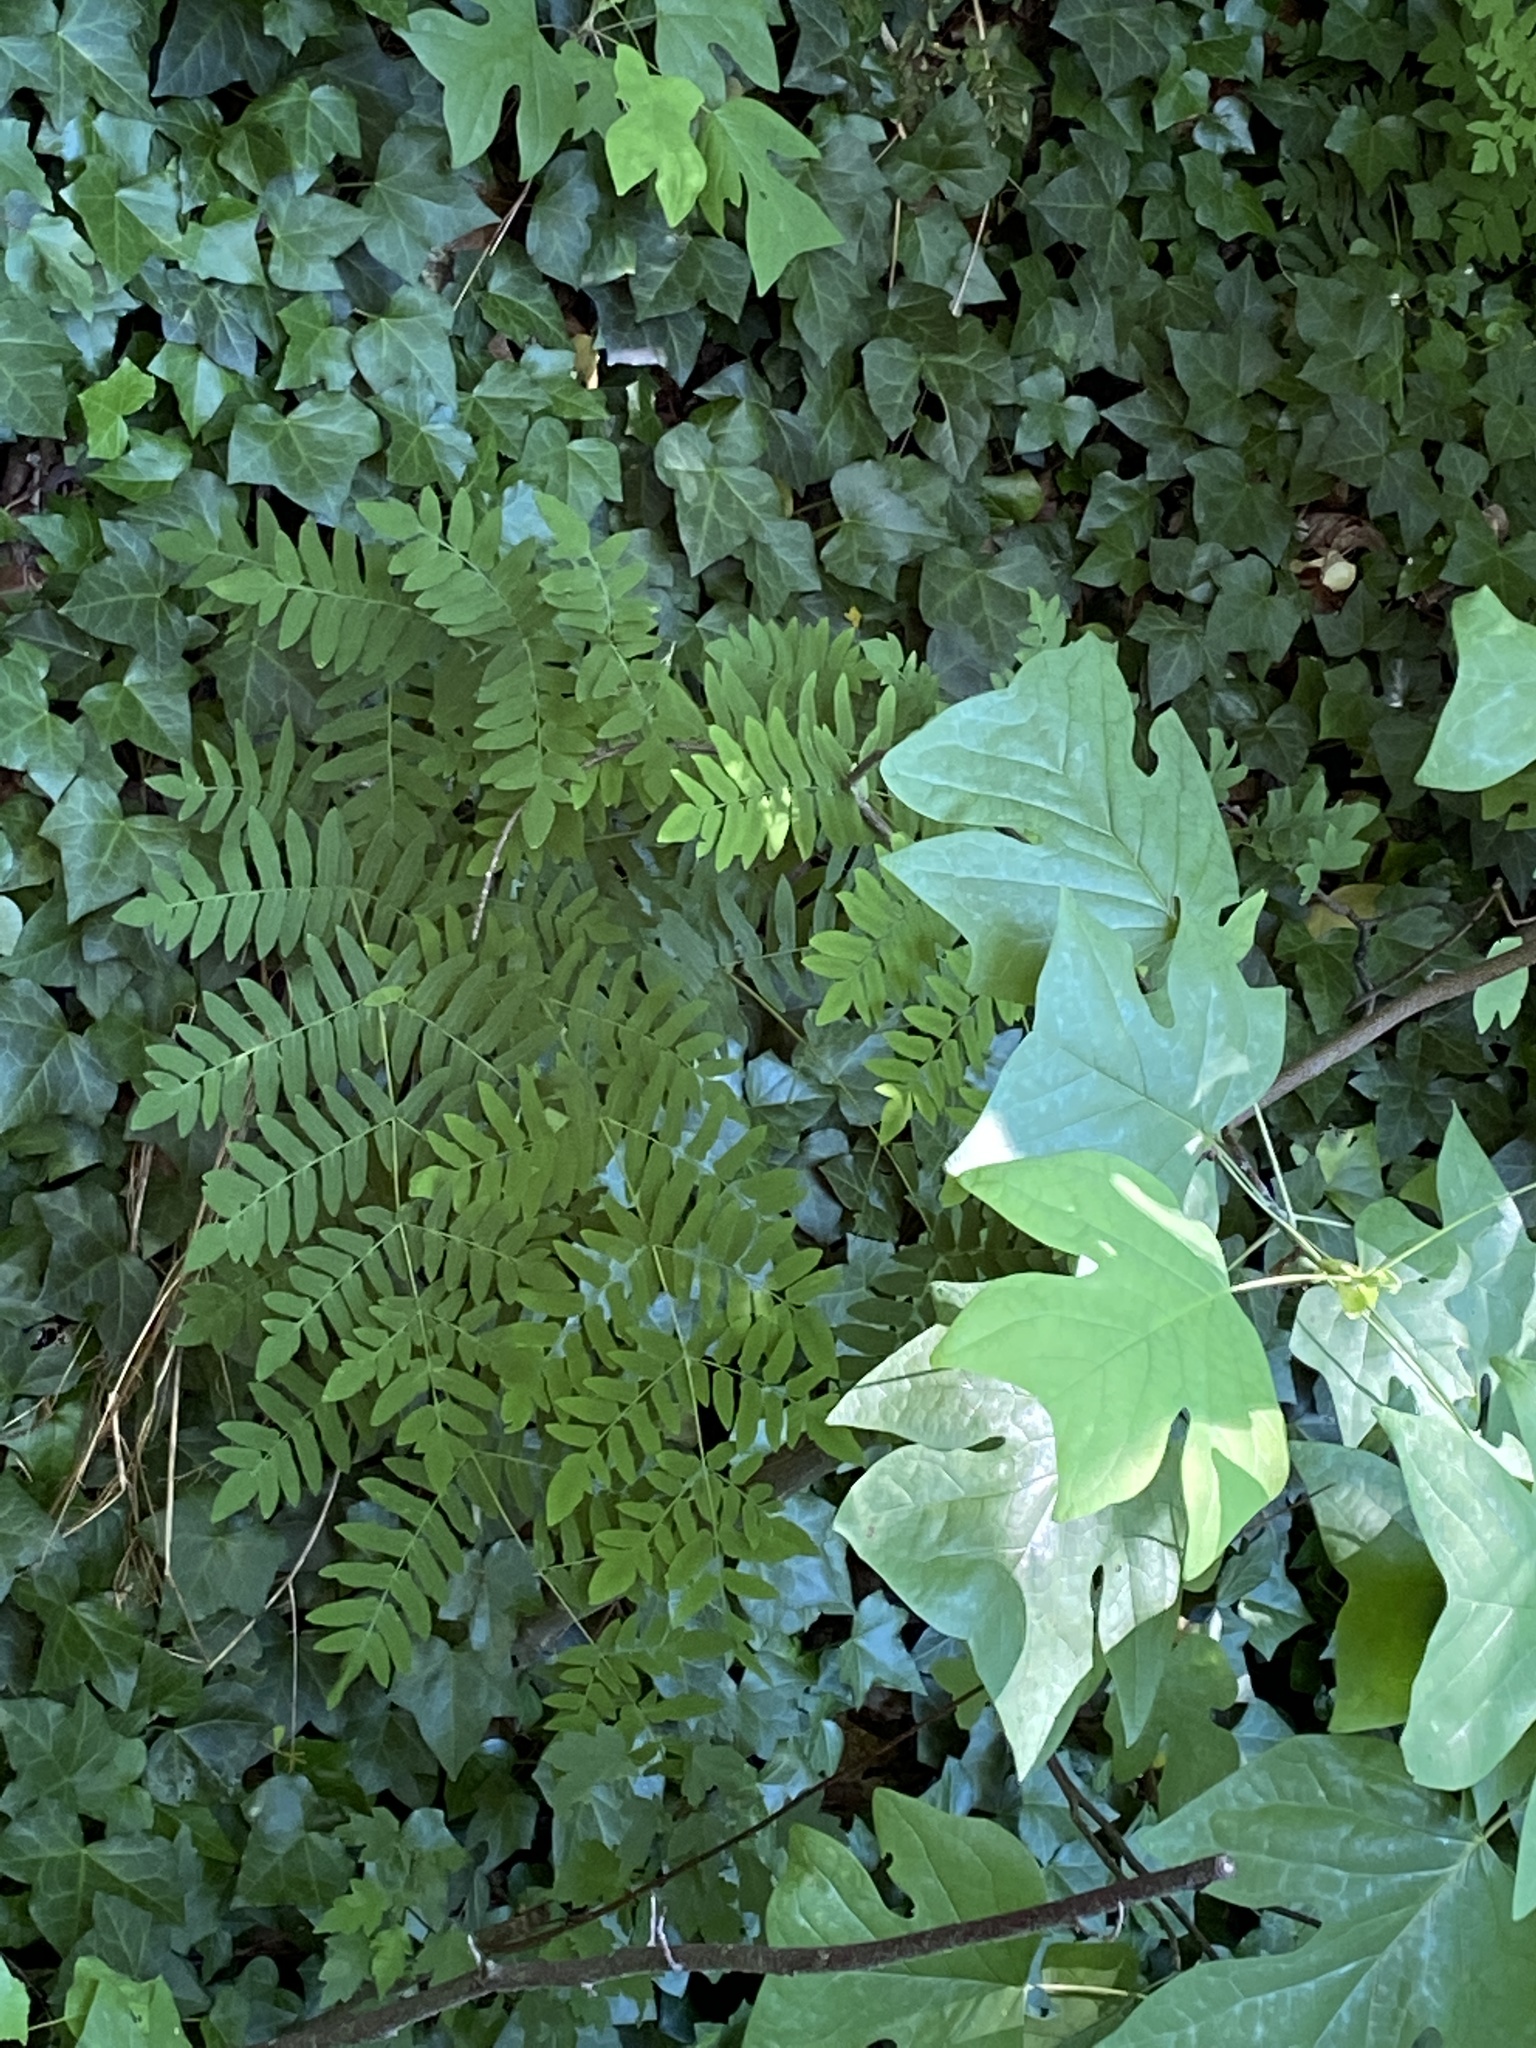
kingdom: Plantae
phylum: Tracheophyta
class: Polypodiopsida
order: Osmundales
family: Osmundaceae
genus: Osmunda
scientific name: Osmunda spectabilis
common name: American royal fern
